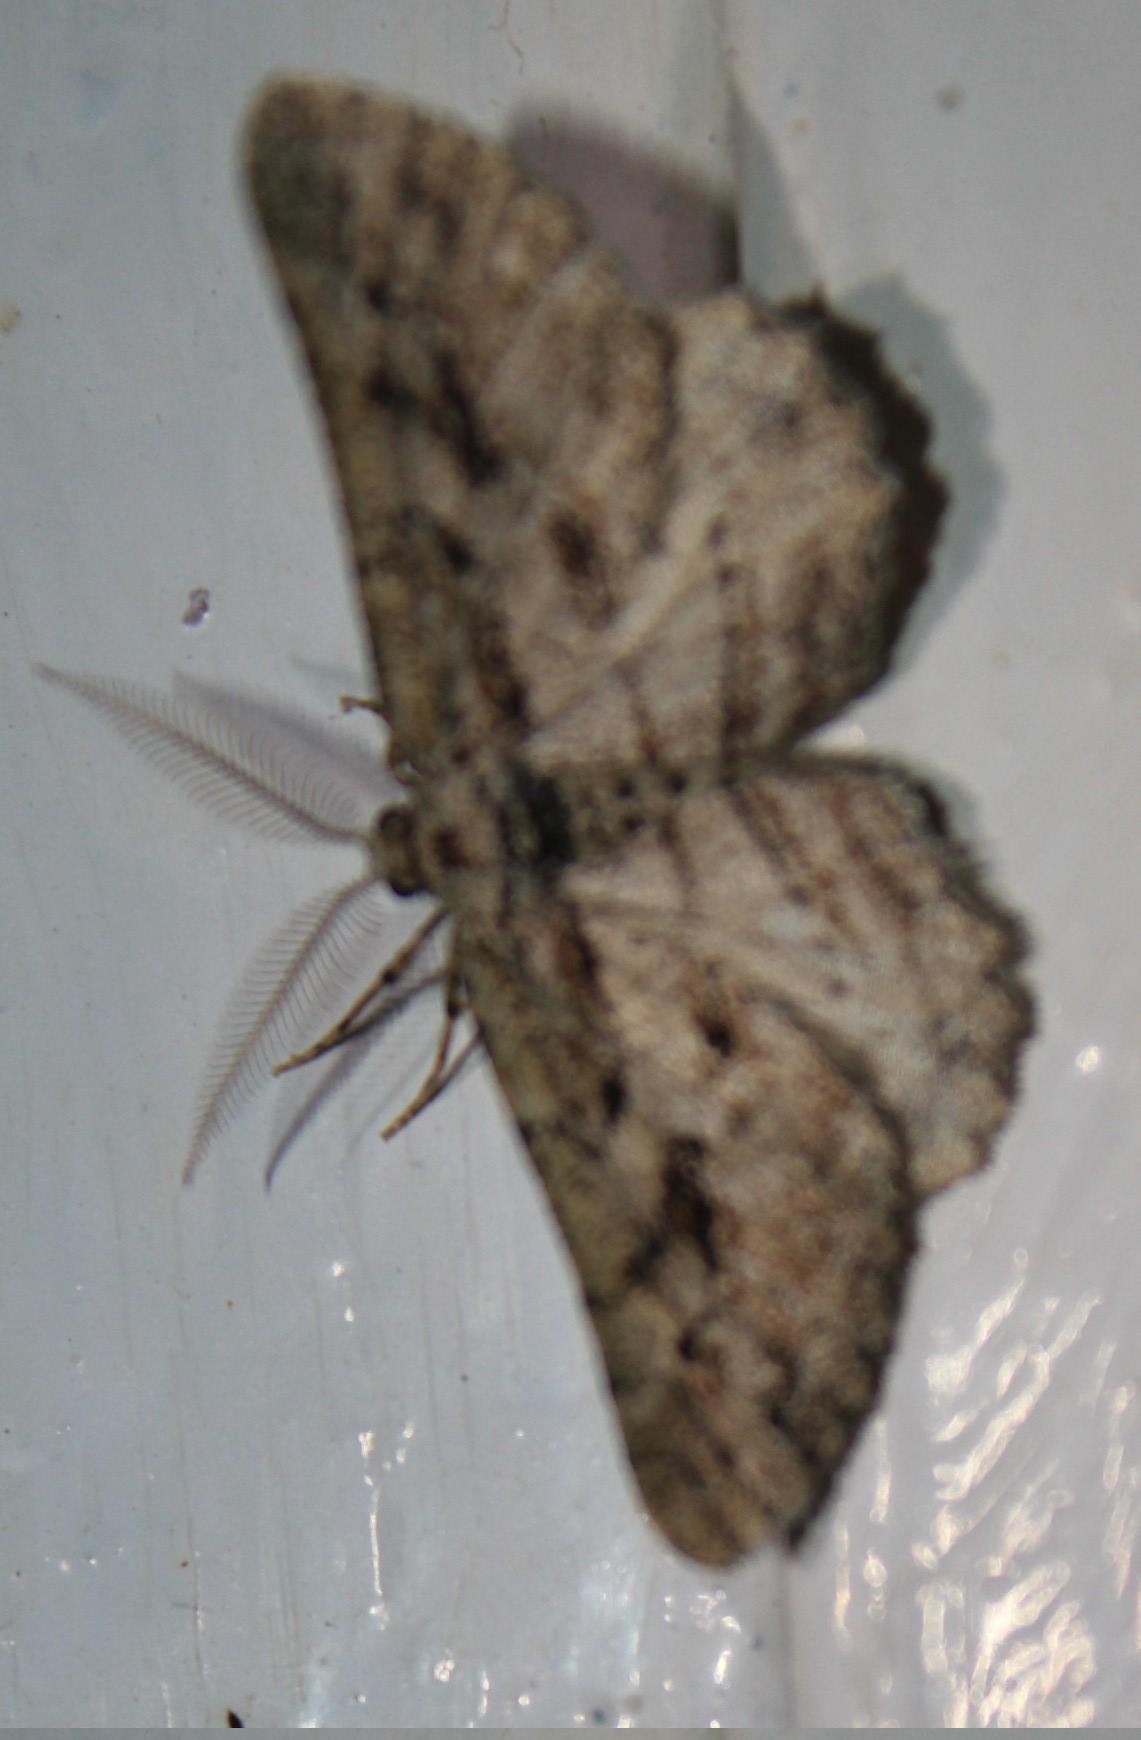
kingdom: Animalia
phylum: Arthropoda
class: Insecta
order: Lepidoptera
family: Geometridae
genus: Hypomecis
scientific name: Hypomecis complacita
